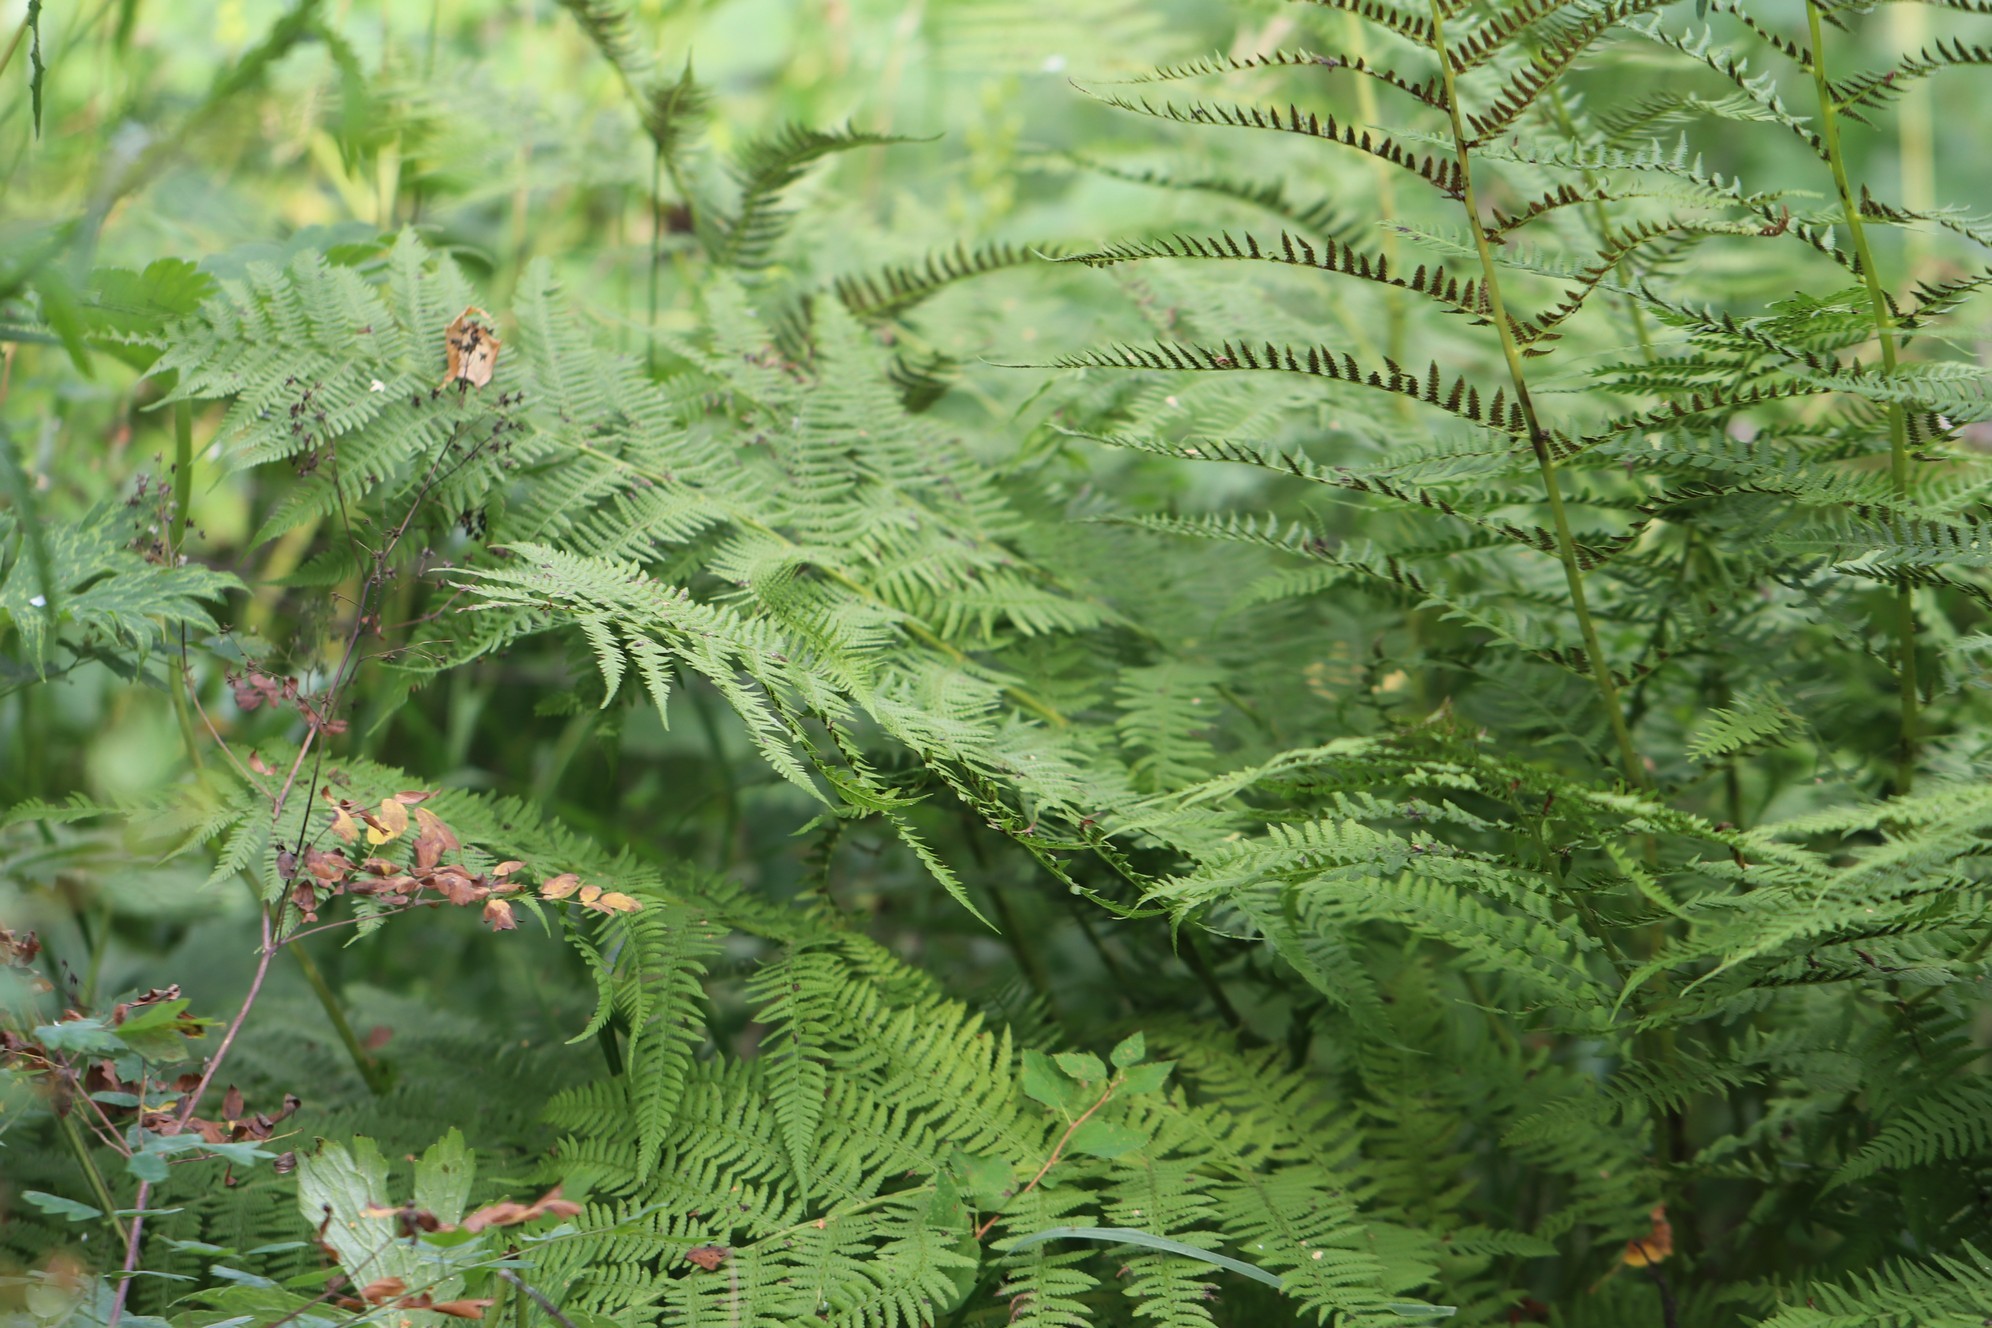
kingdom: Plantae
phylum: Tracheophyta
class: Polypodiopsida
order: Polypodiales
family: Athyriaceae
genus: Athyrium
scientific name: Athyrium filix-femina
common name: Lady fern
